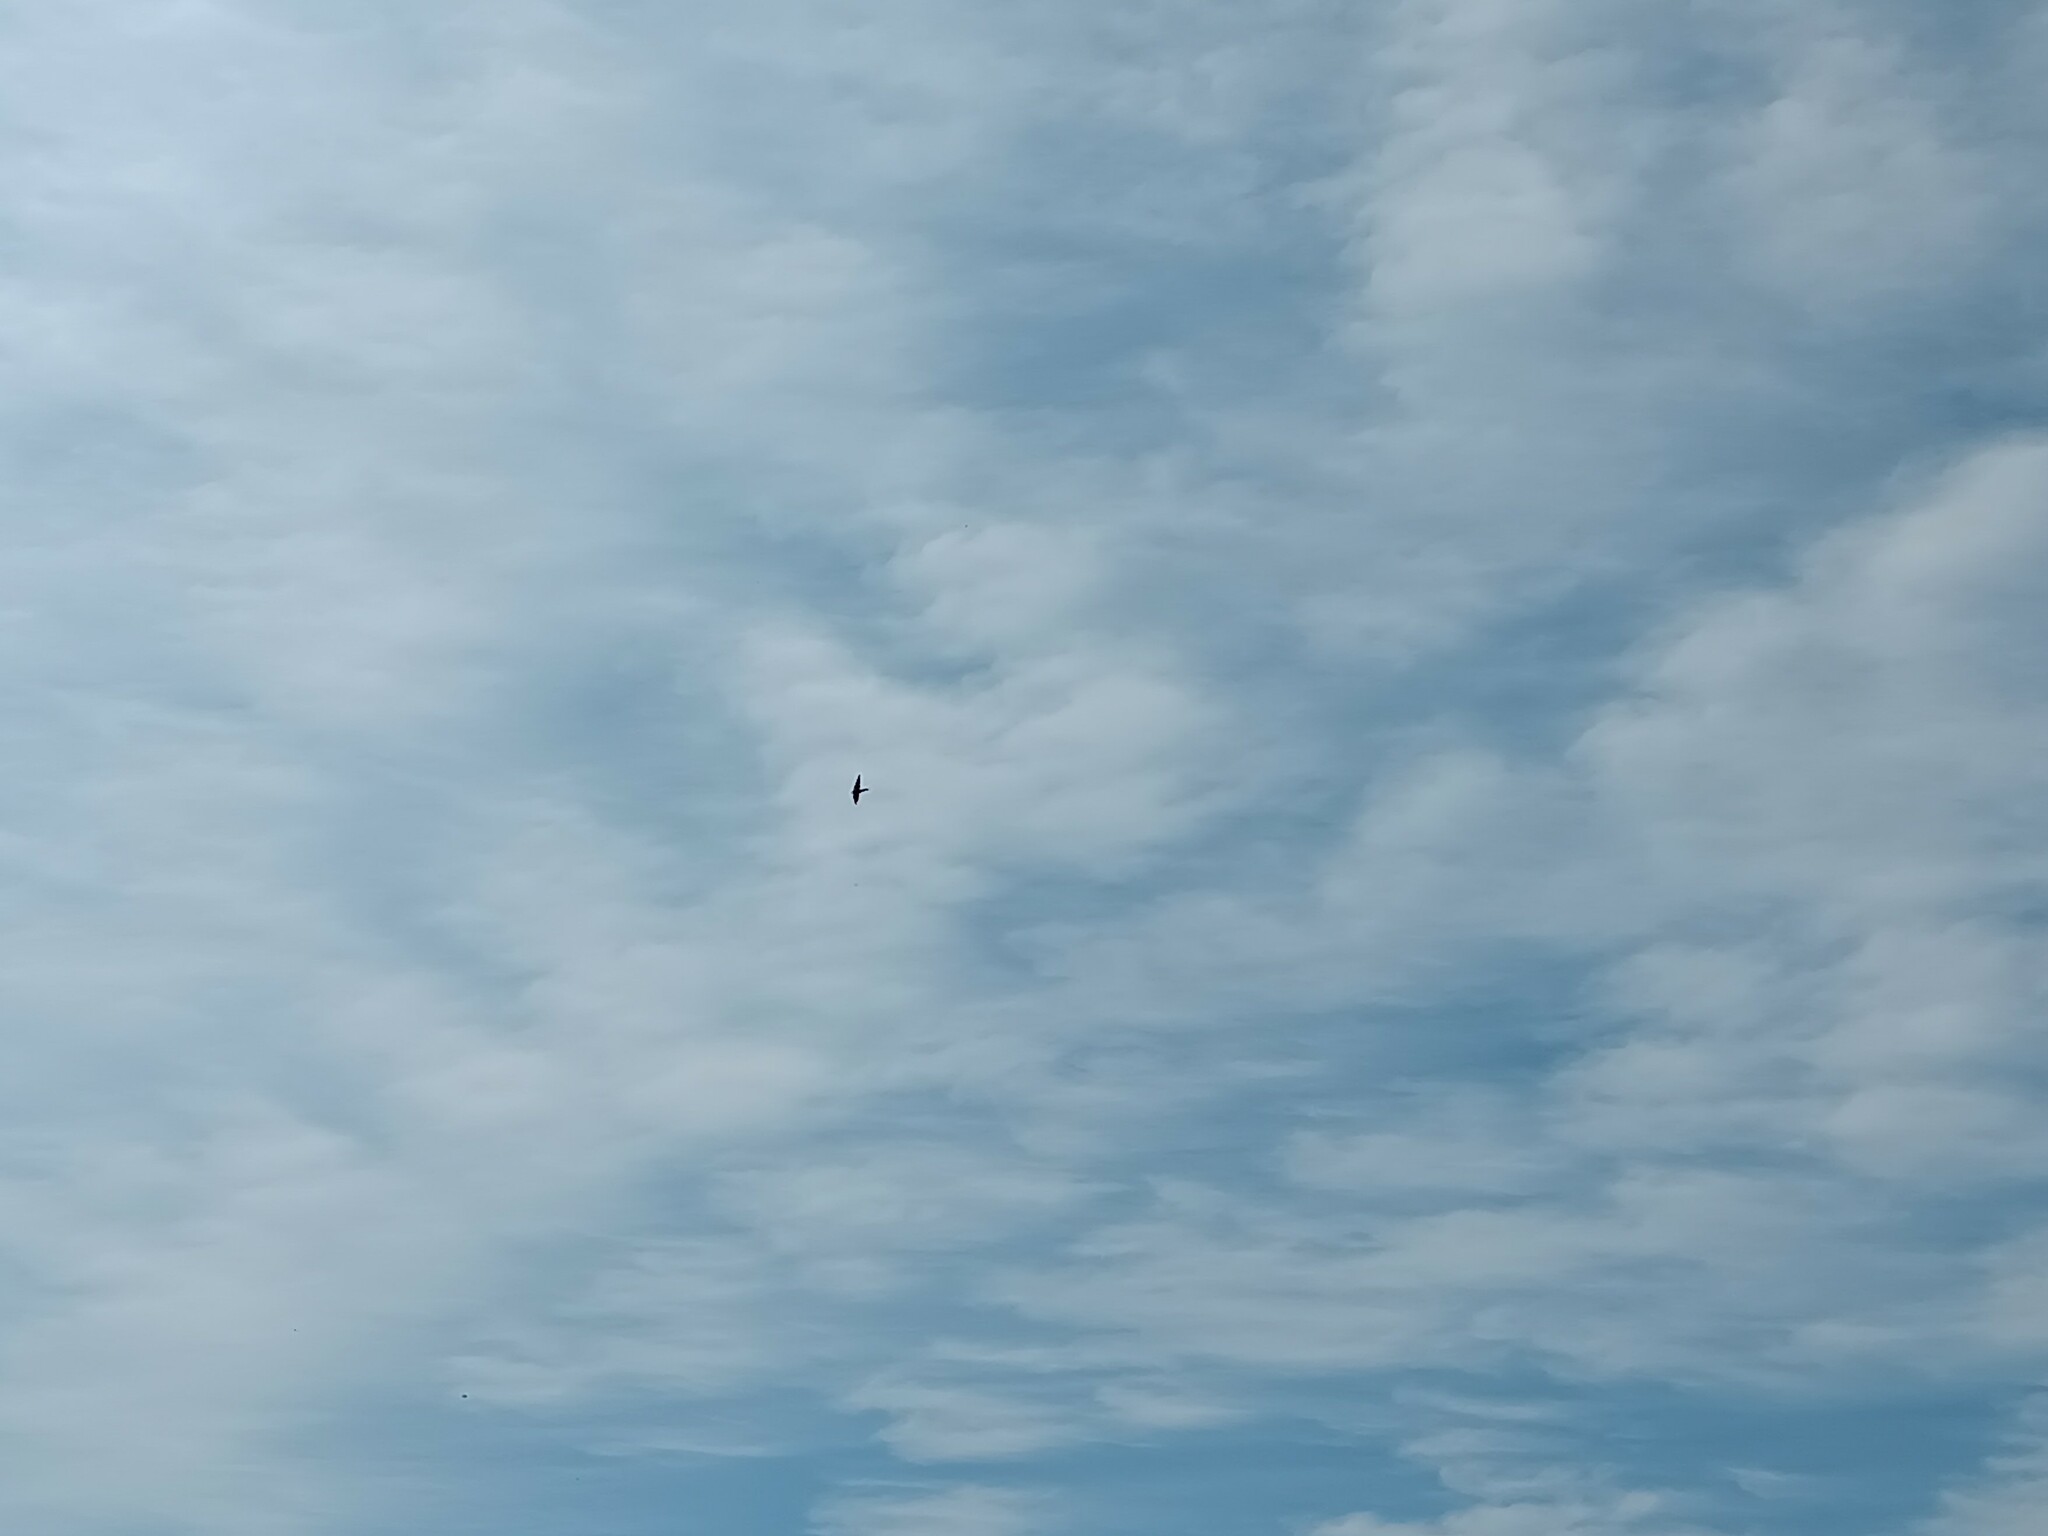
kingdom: Animalia
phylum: Chordata
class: Aves
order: Passeriformes
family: Hirundinidae
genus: Delichon
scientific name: Delichon urbicum
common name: Common house martin
